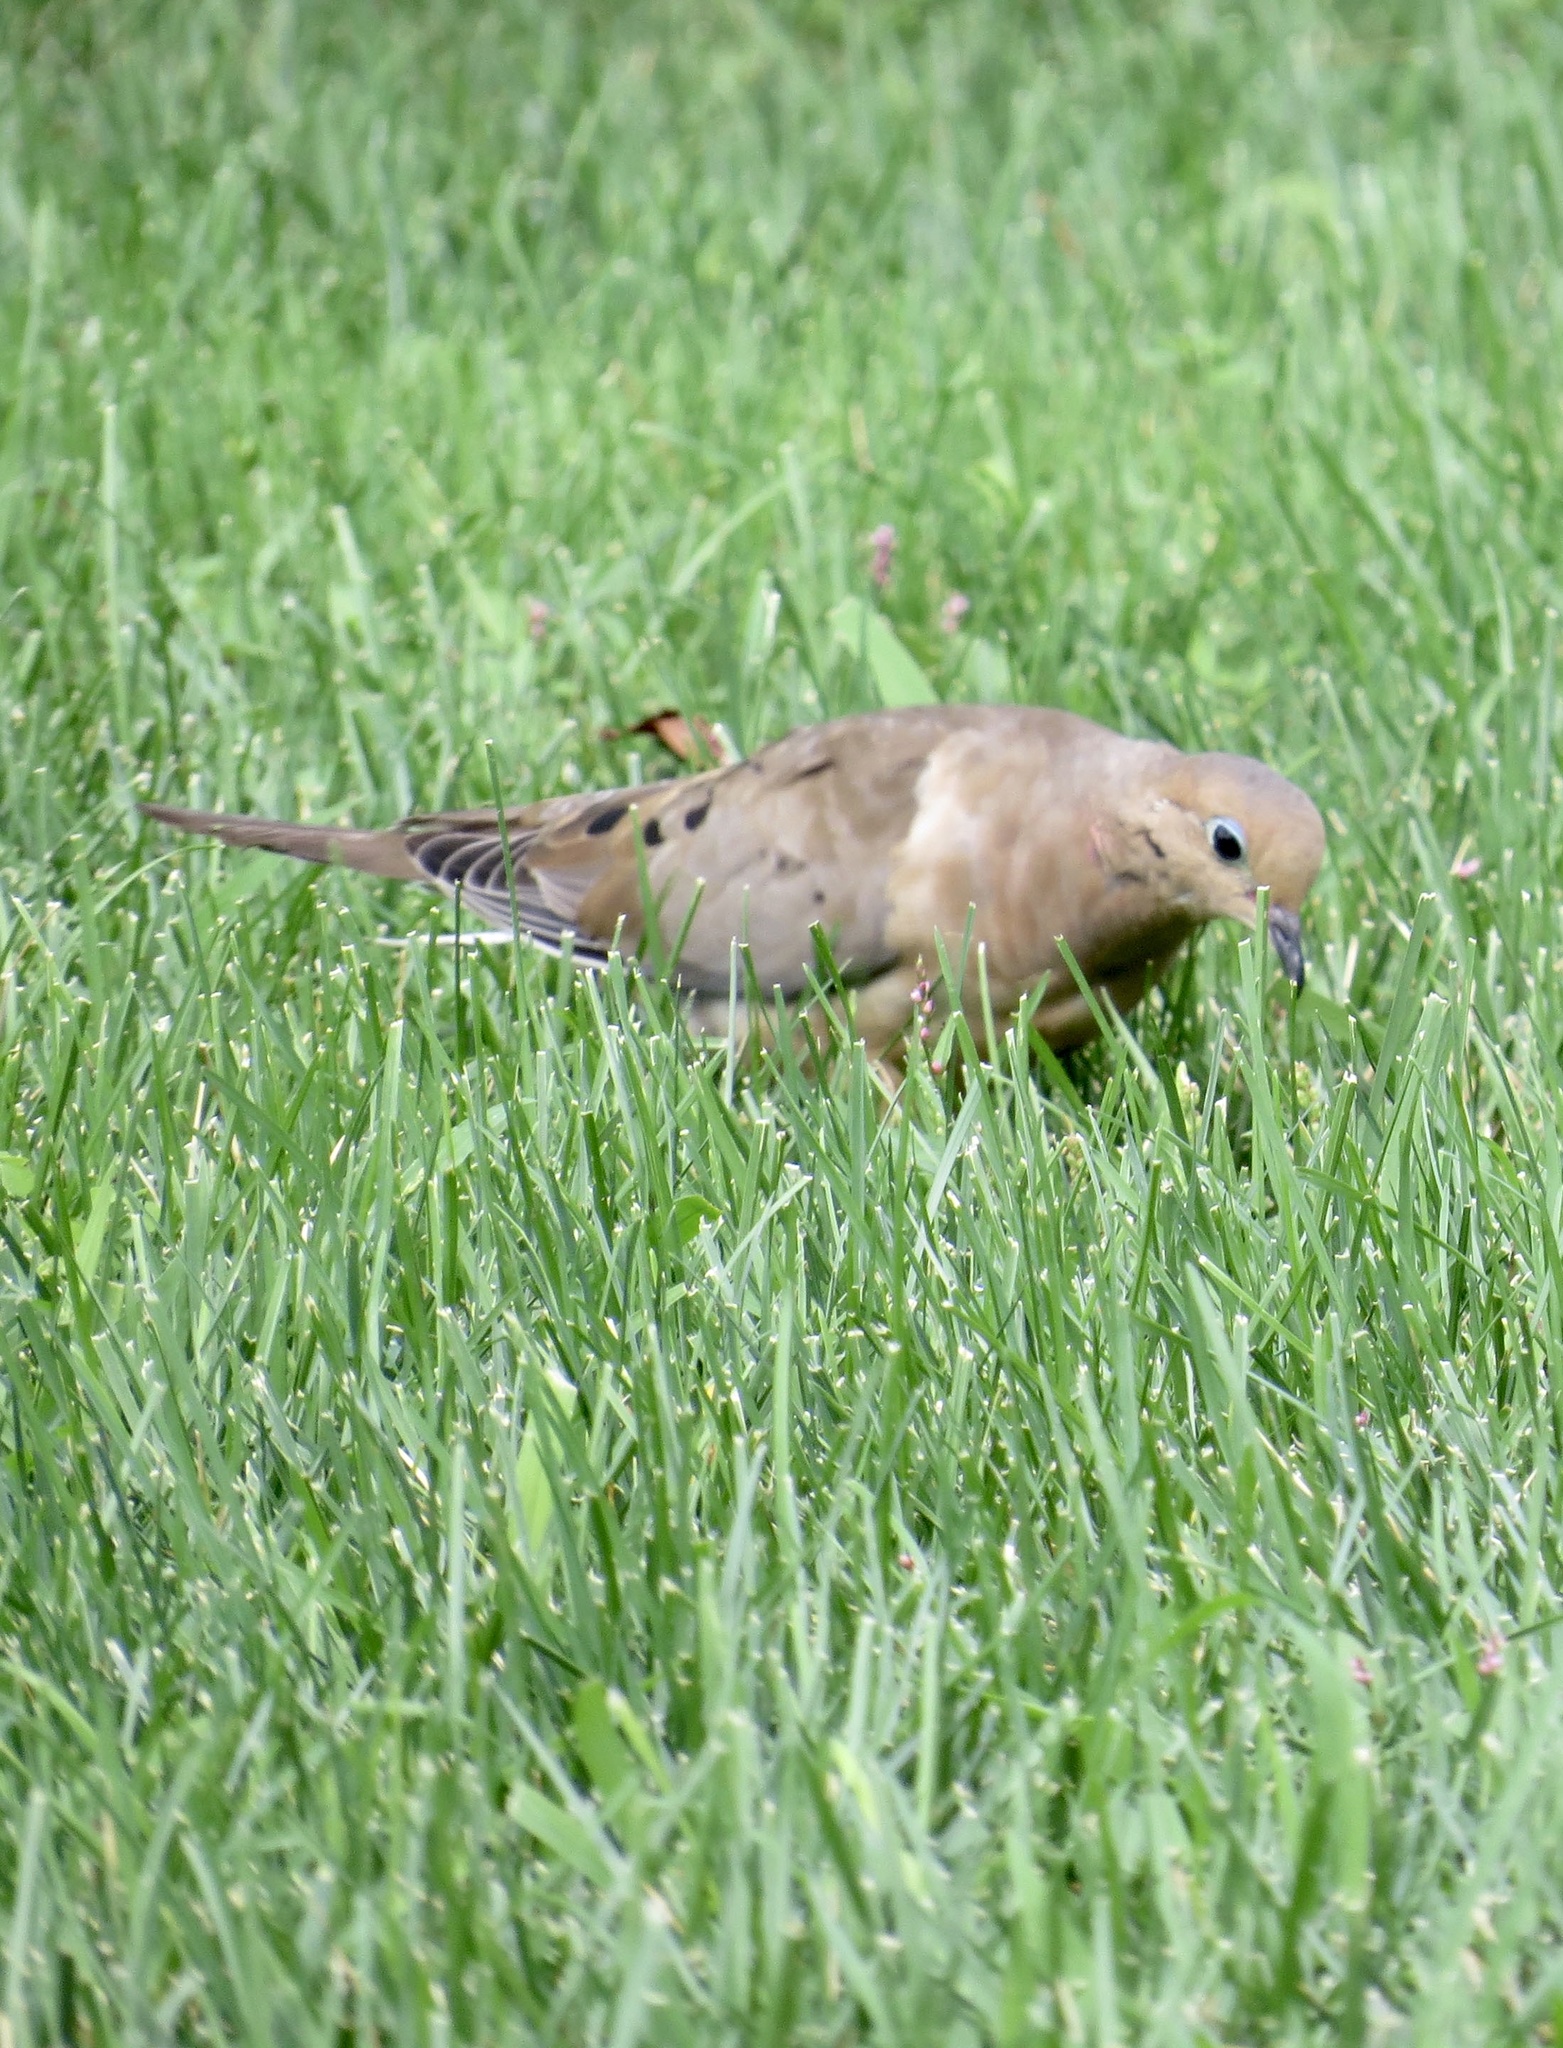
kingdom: Animalia
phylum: Chordata
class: Aves
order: Columbiformes
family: Columbidae
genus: Zenaida
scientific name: Zenaida macroura
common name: Mourning dove
